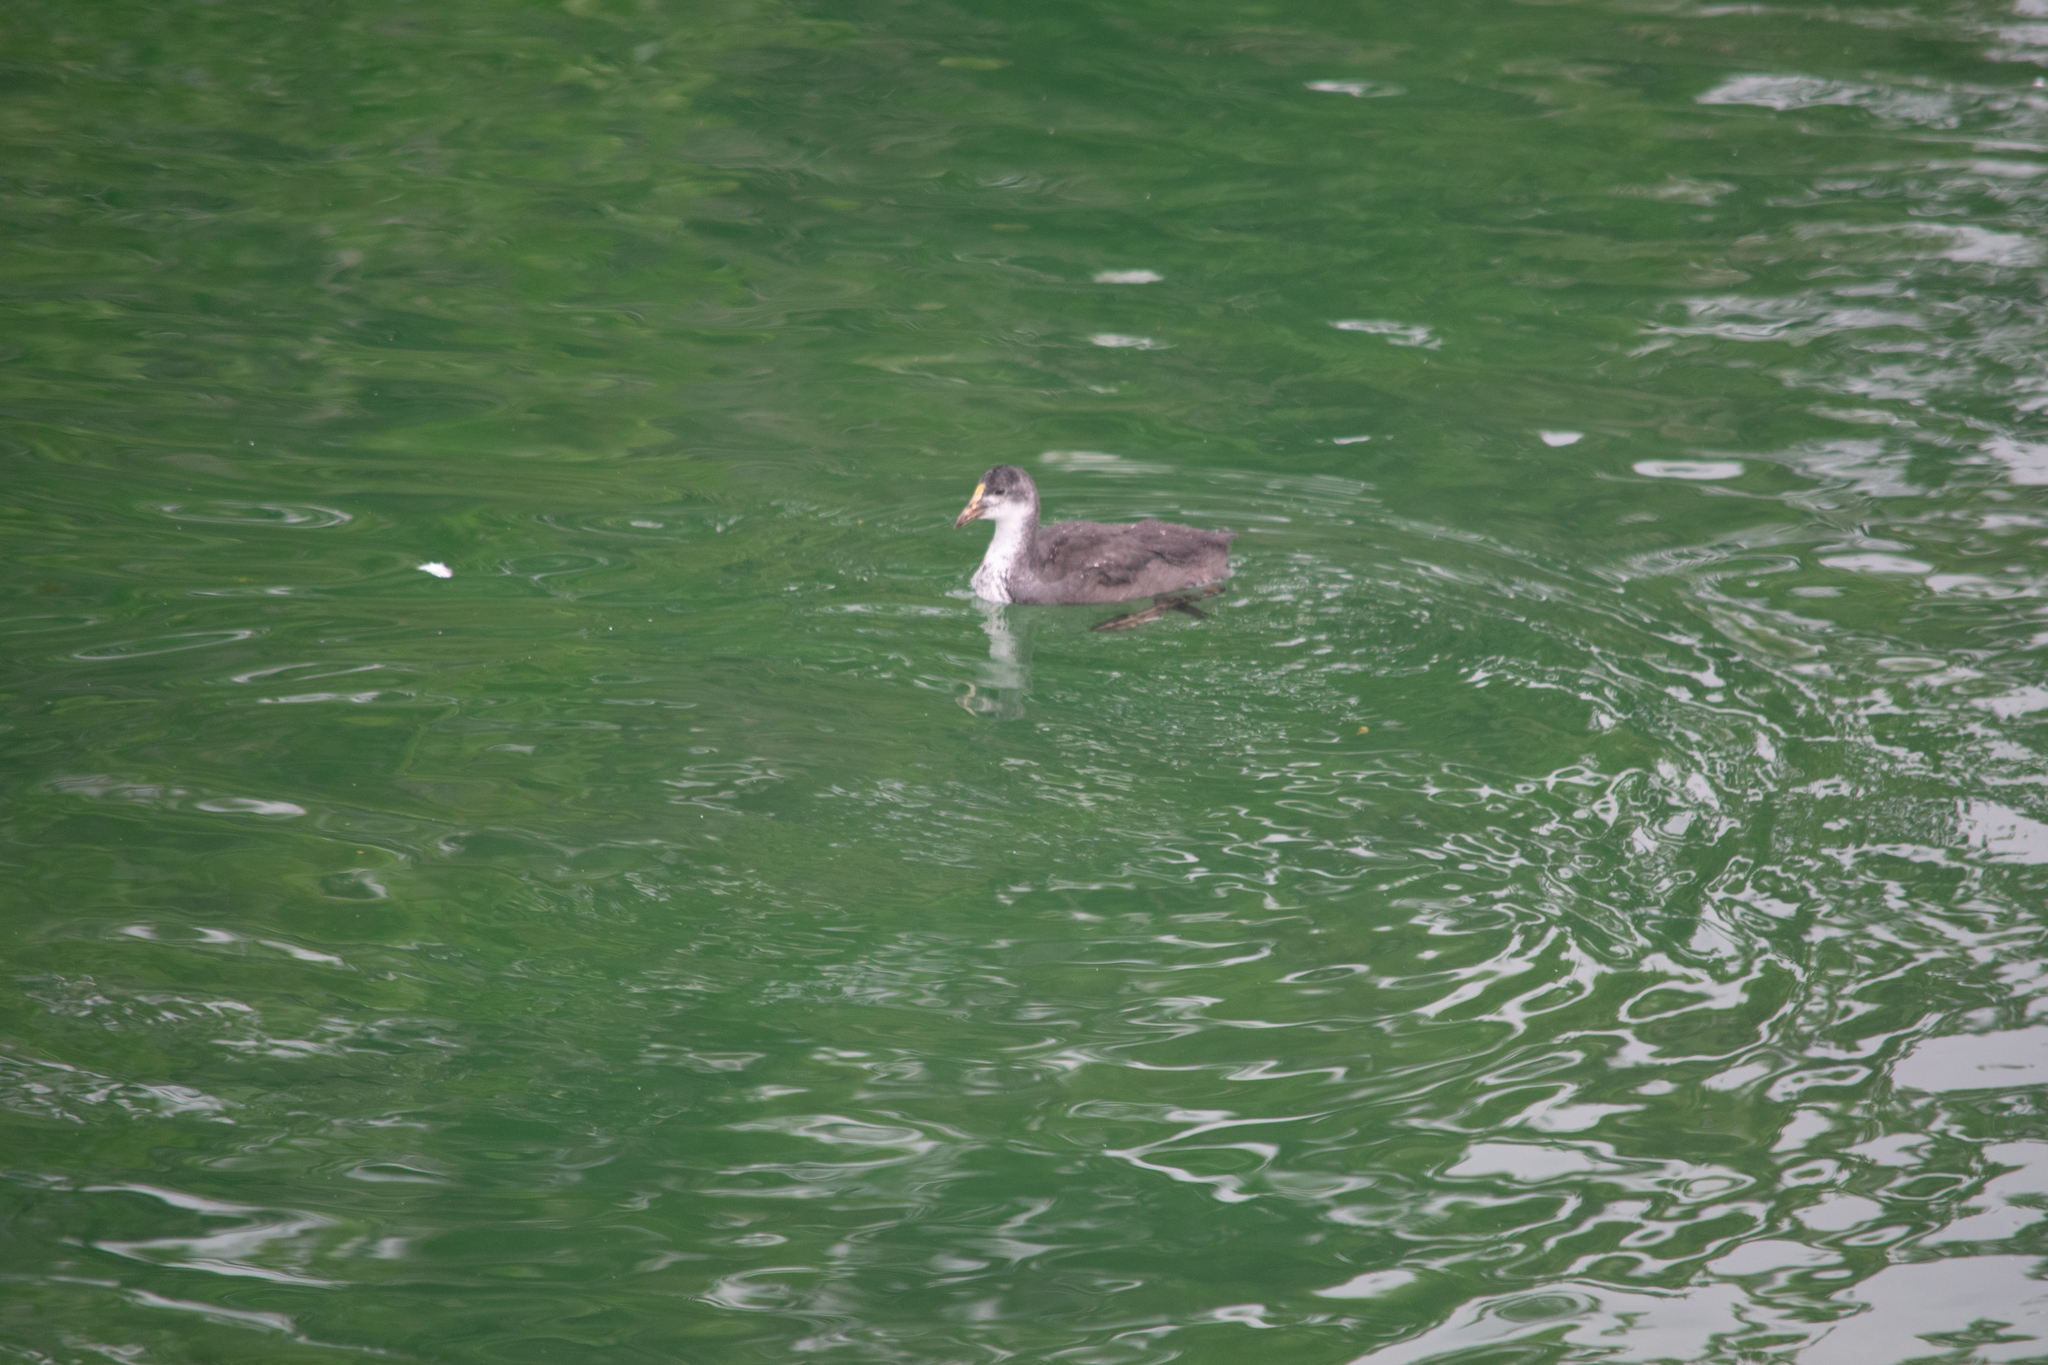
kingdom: Animalia
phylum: Chordata
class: Aves
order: Gruiformes
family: Rallidae
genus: Fulica
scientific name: Fulica atra
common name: Eurasian coot
